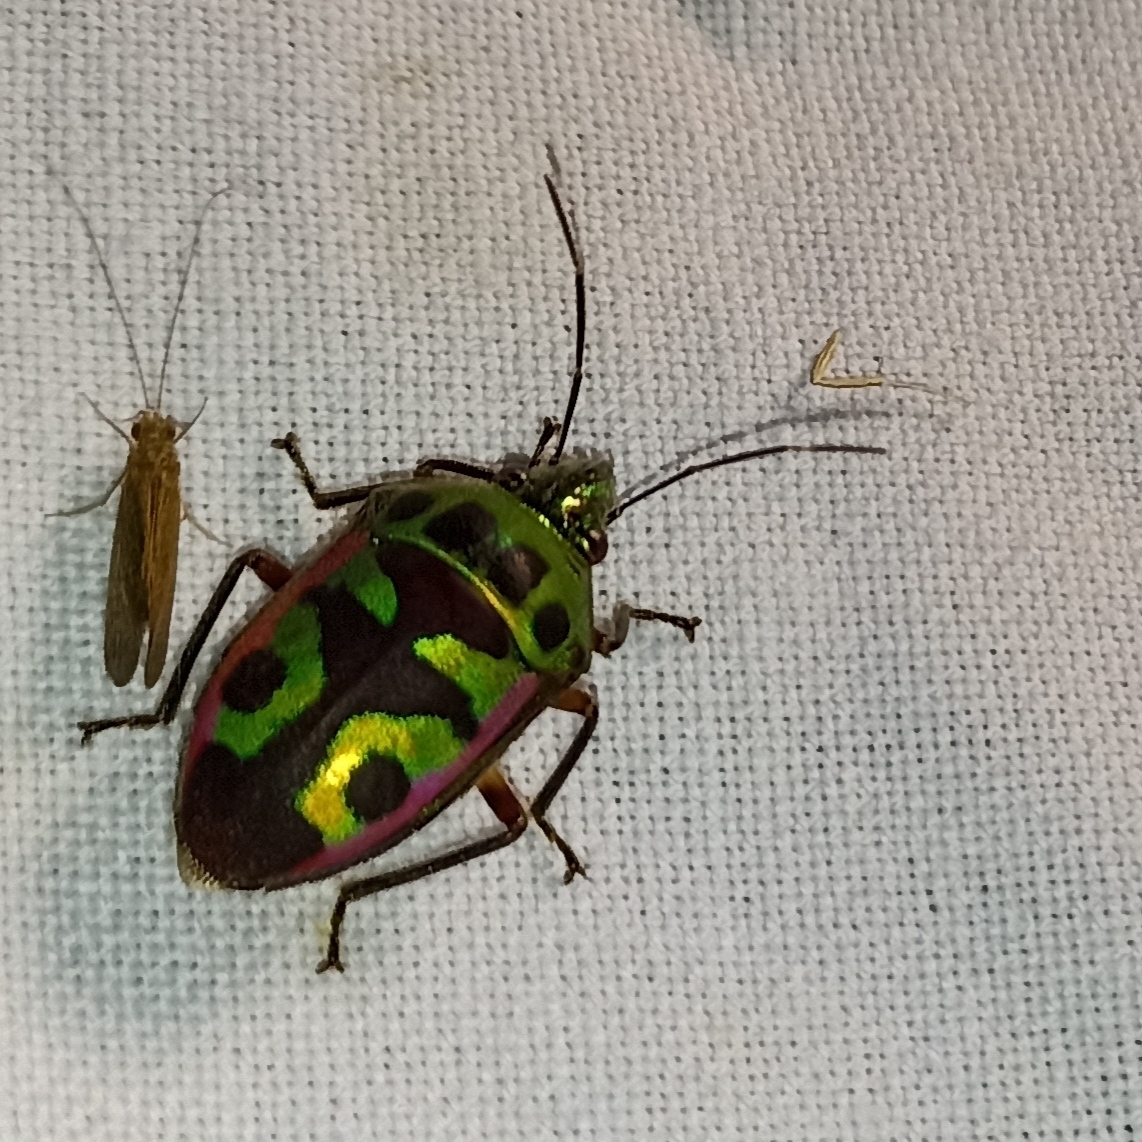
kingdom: Animalia
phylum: Arthropoda
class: Insecta
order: Hemiptera
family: Scutelleridae
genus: Tetrarthria
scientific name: Tetrarthria variegata
